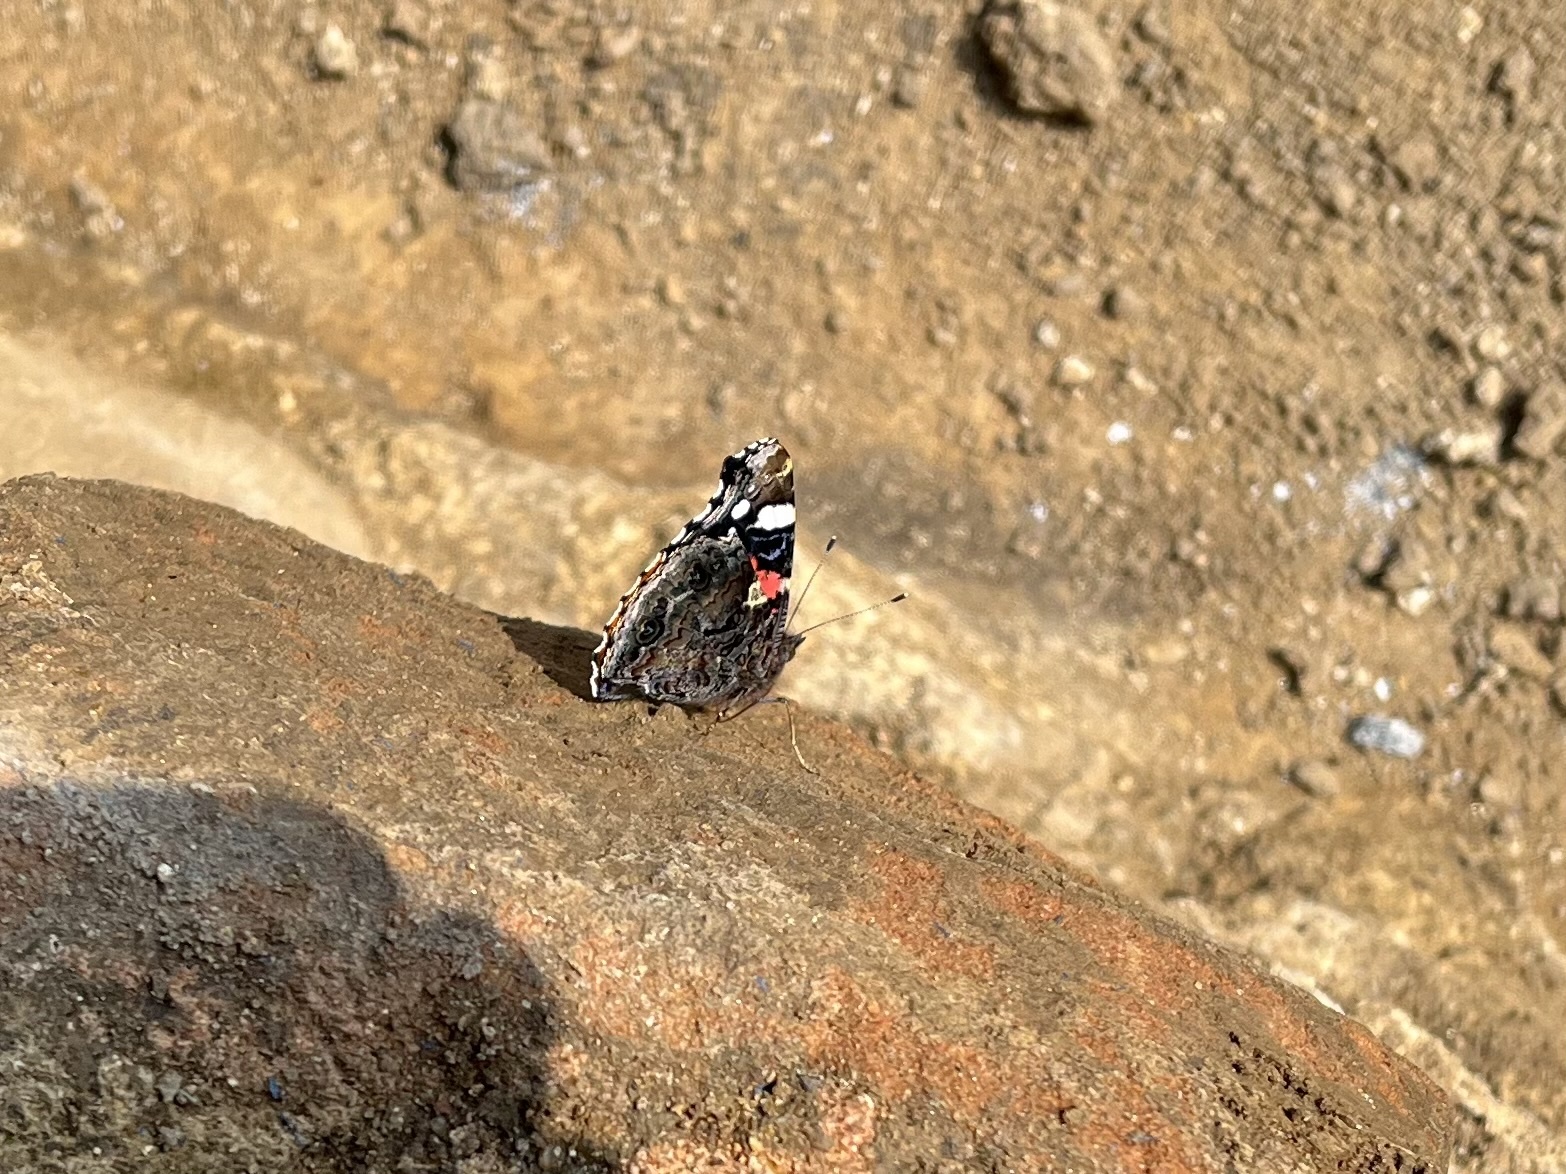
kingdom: Animalia
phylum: Arthropoda
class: Insecta
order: Lepidoptera
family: Nymphalidae
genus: Vanessa
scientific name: Vanessa atalanta
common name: Red admiral
